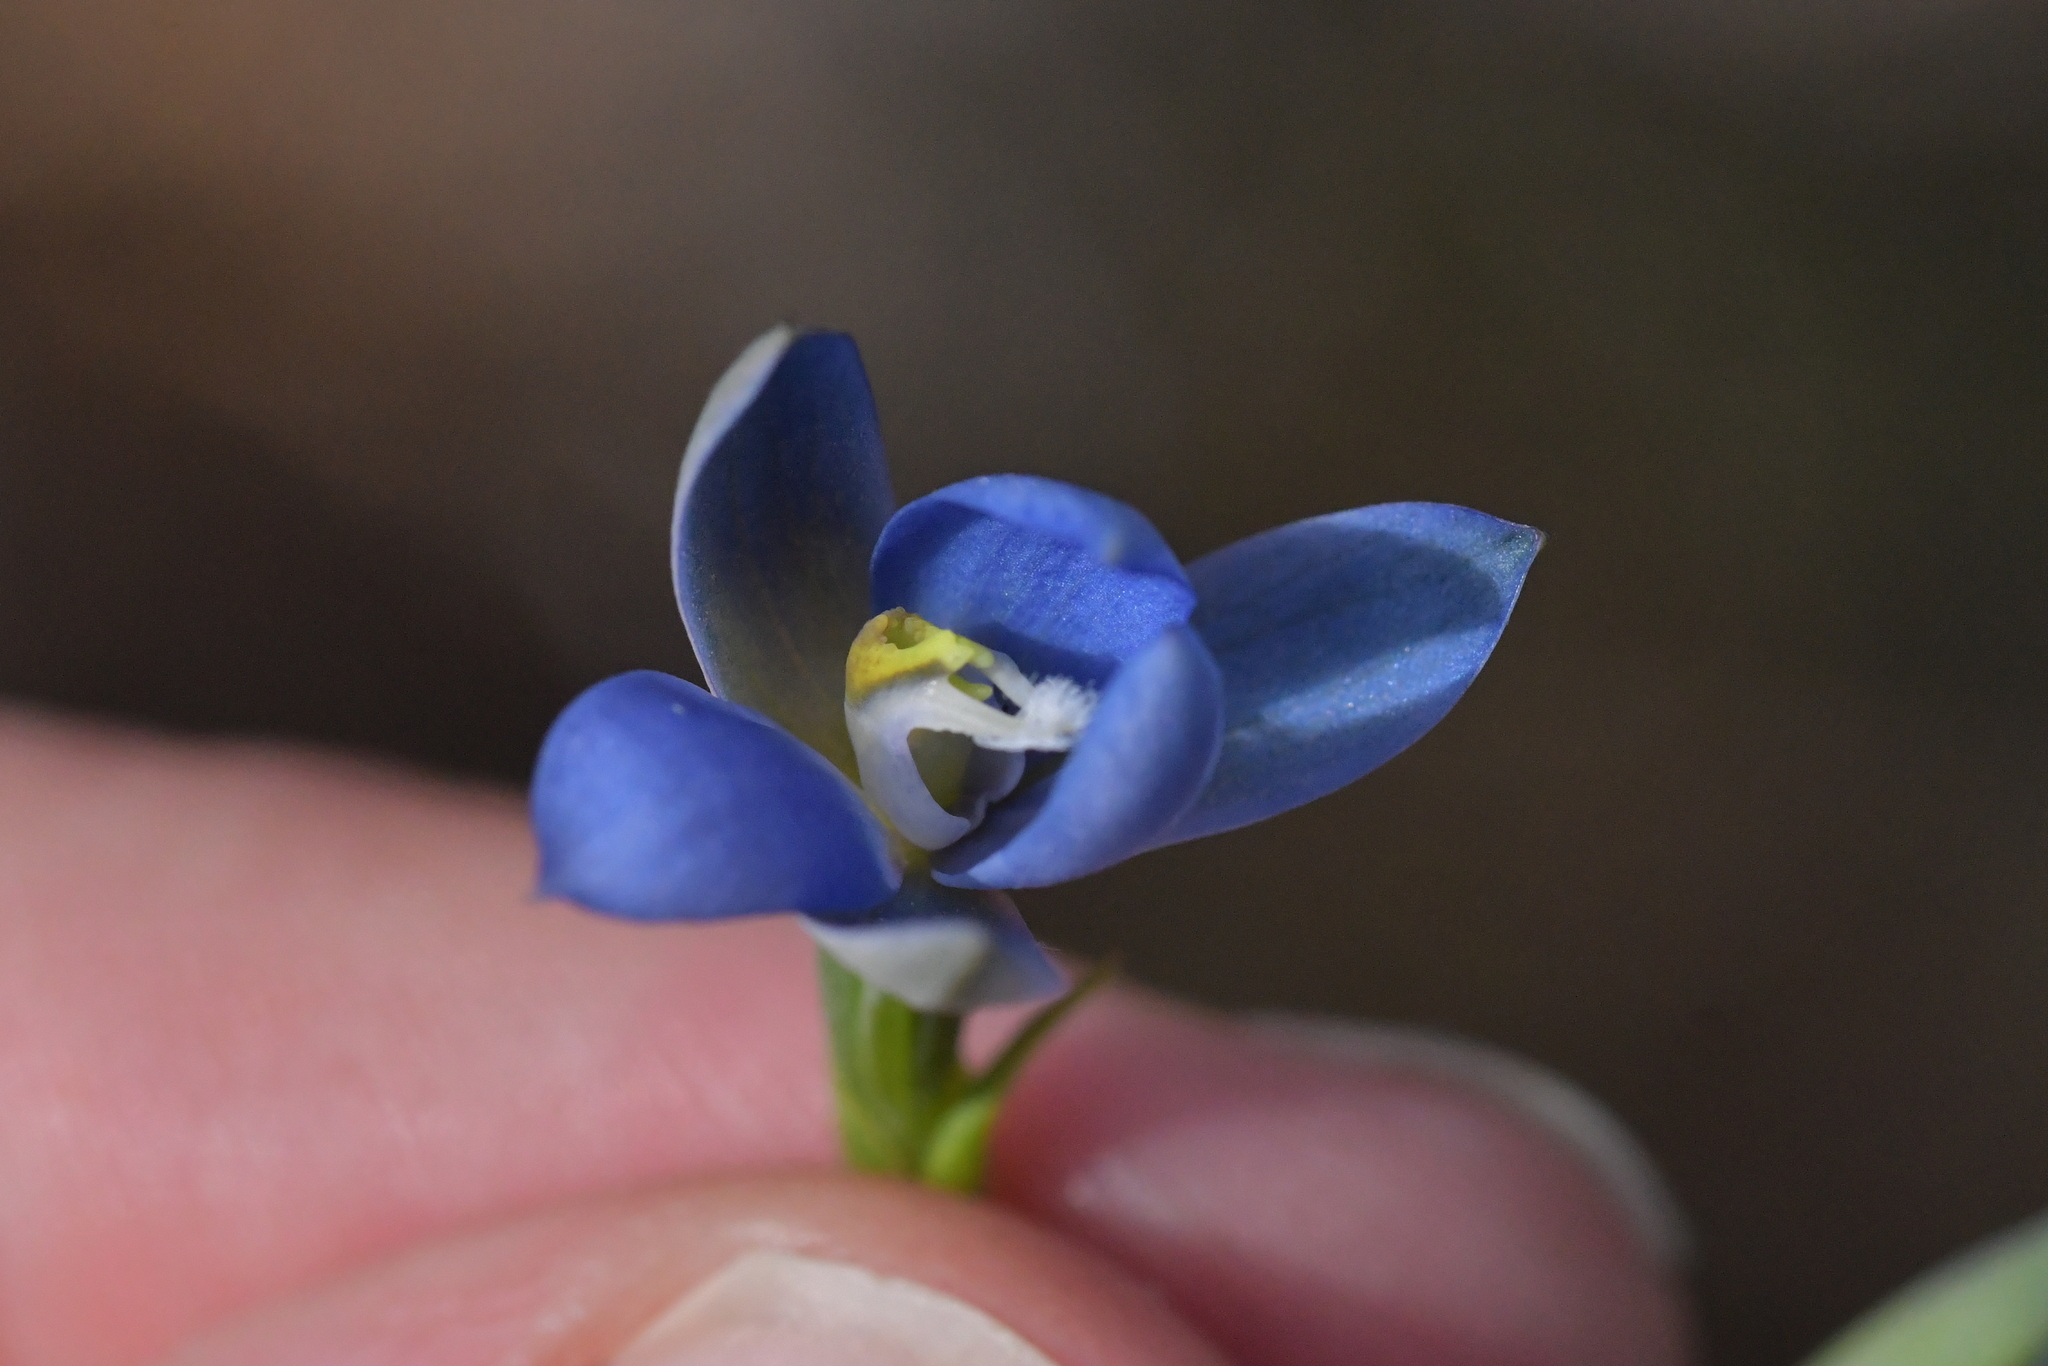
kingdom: Plantae
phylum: Tracheophyta
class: Liliopsida
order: Asparagales
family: Orchidaceae
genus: Thelymitra
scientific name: Thelymitra aemula
